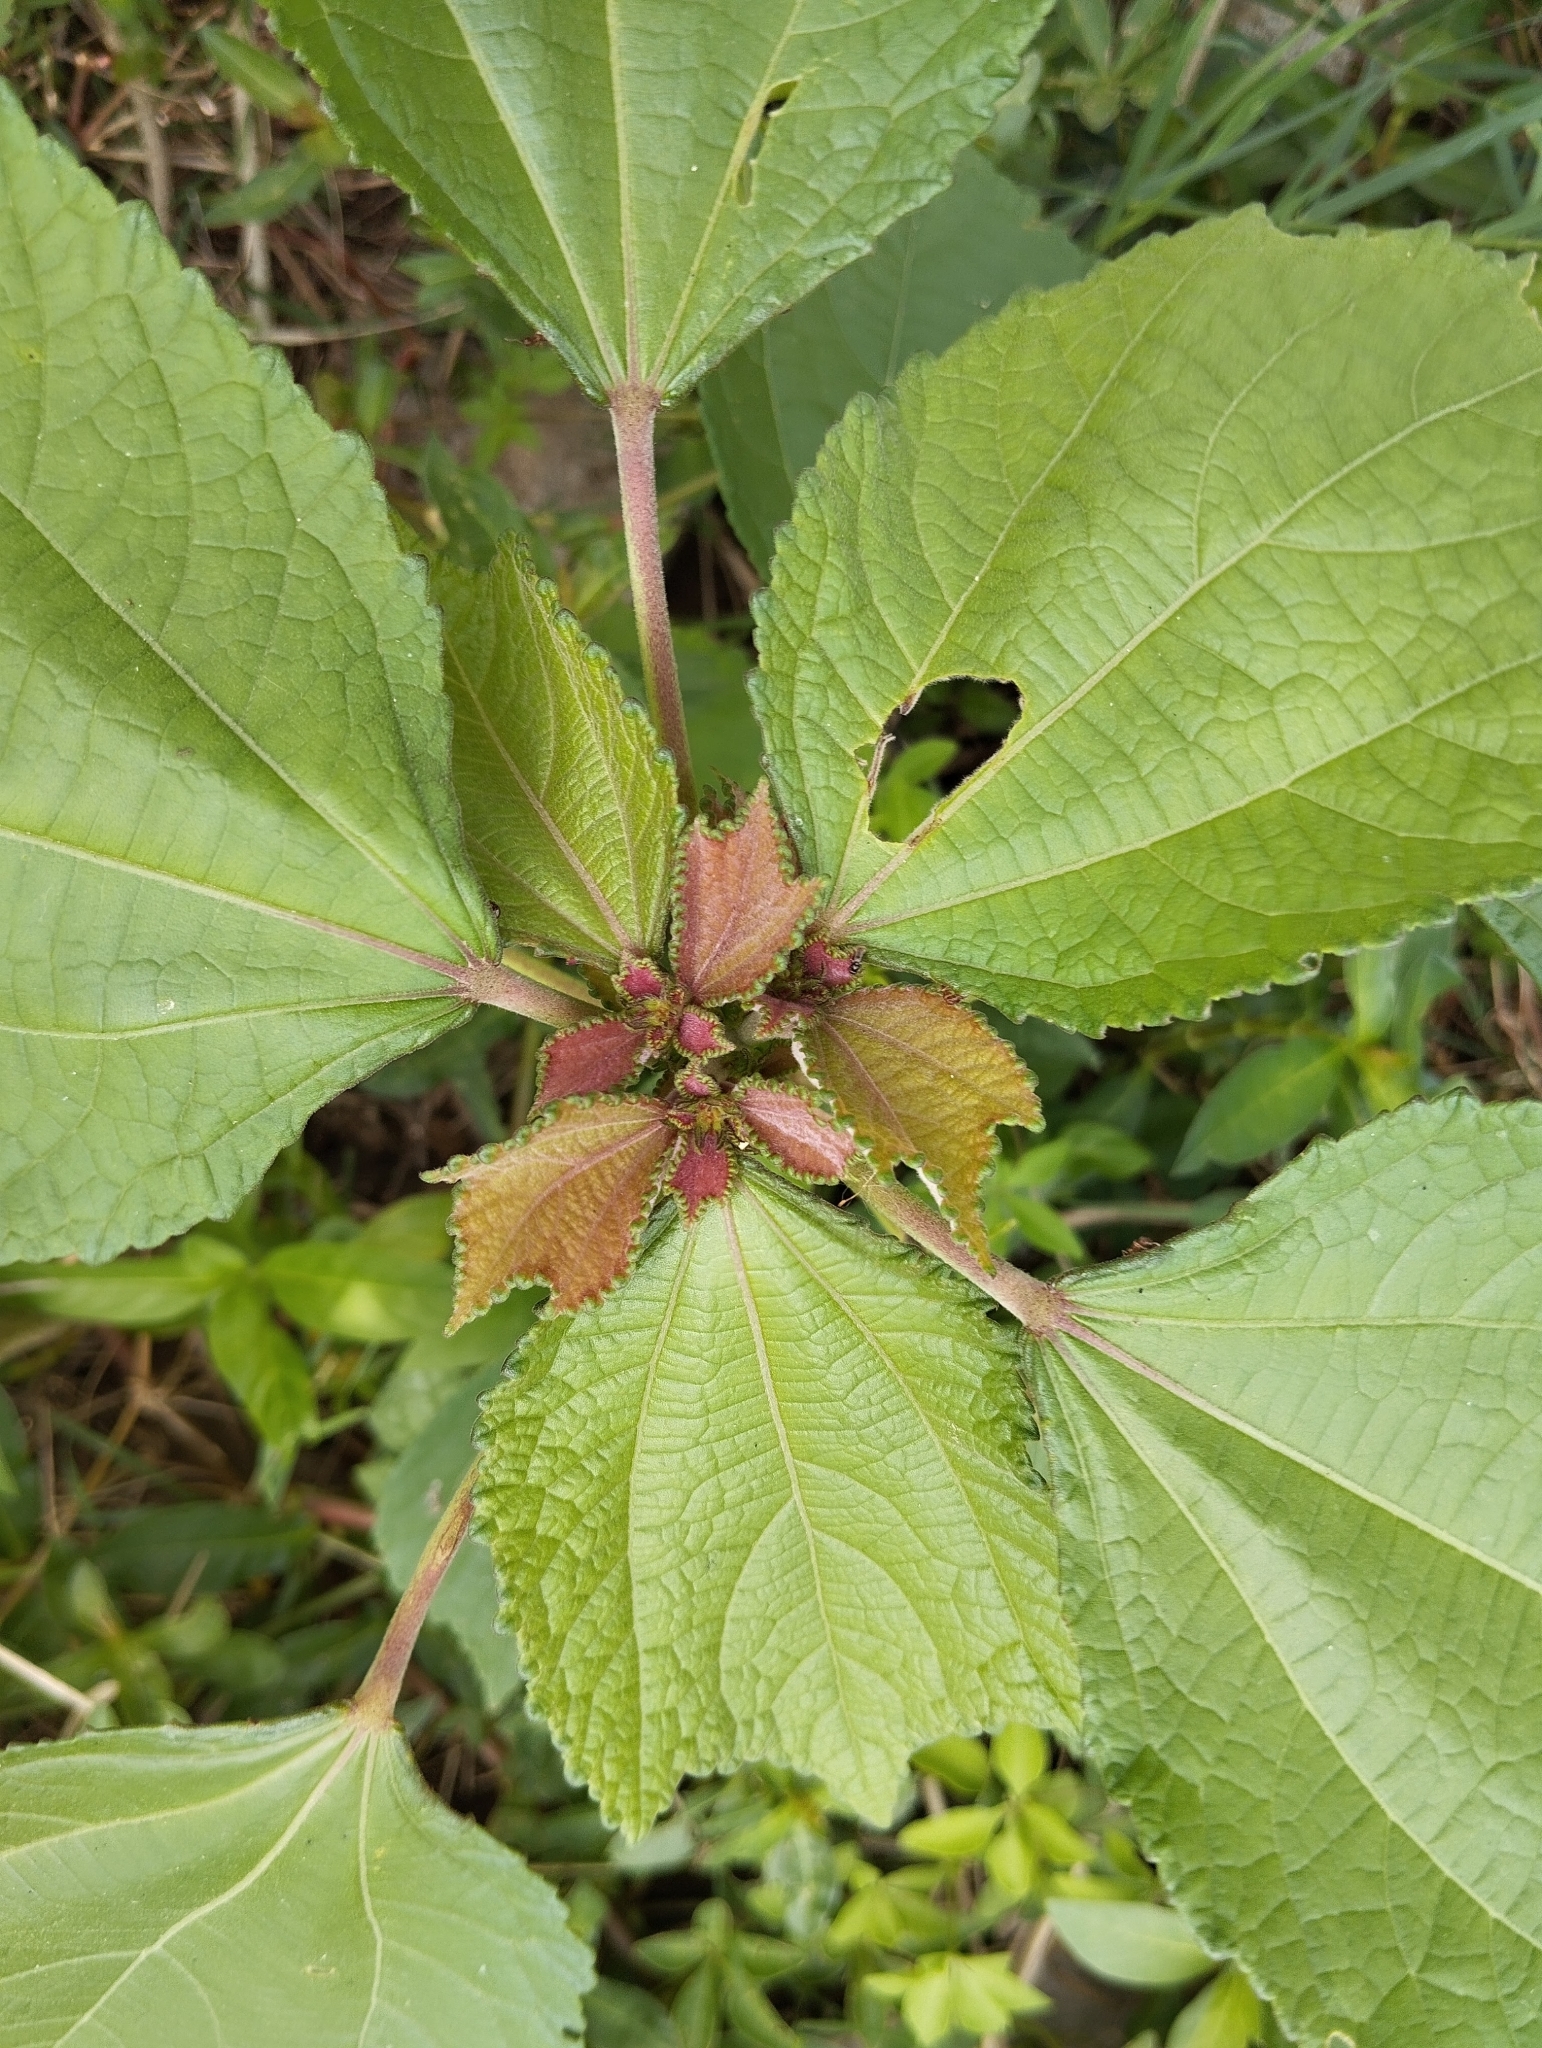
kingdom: Plantae
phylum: Tracheophyta
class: Magnoliopsida
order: Malvales
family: Malvaceae
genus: Triumfetta
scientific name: Triumfetta semitriloba
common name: Sacramento burbark
